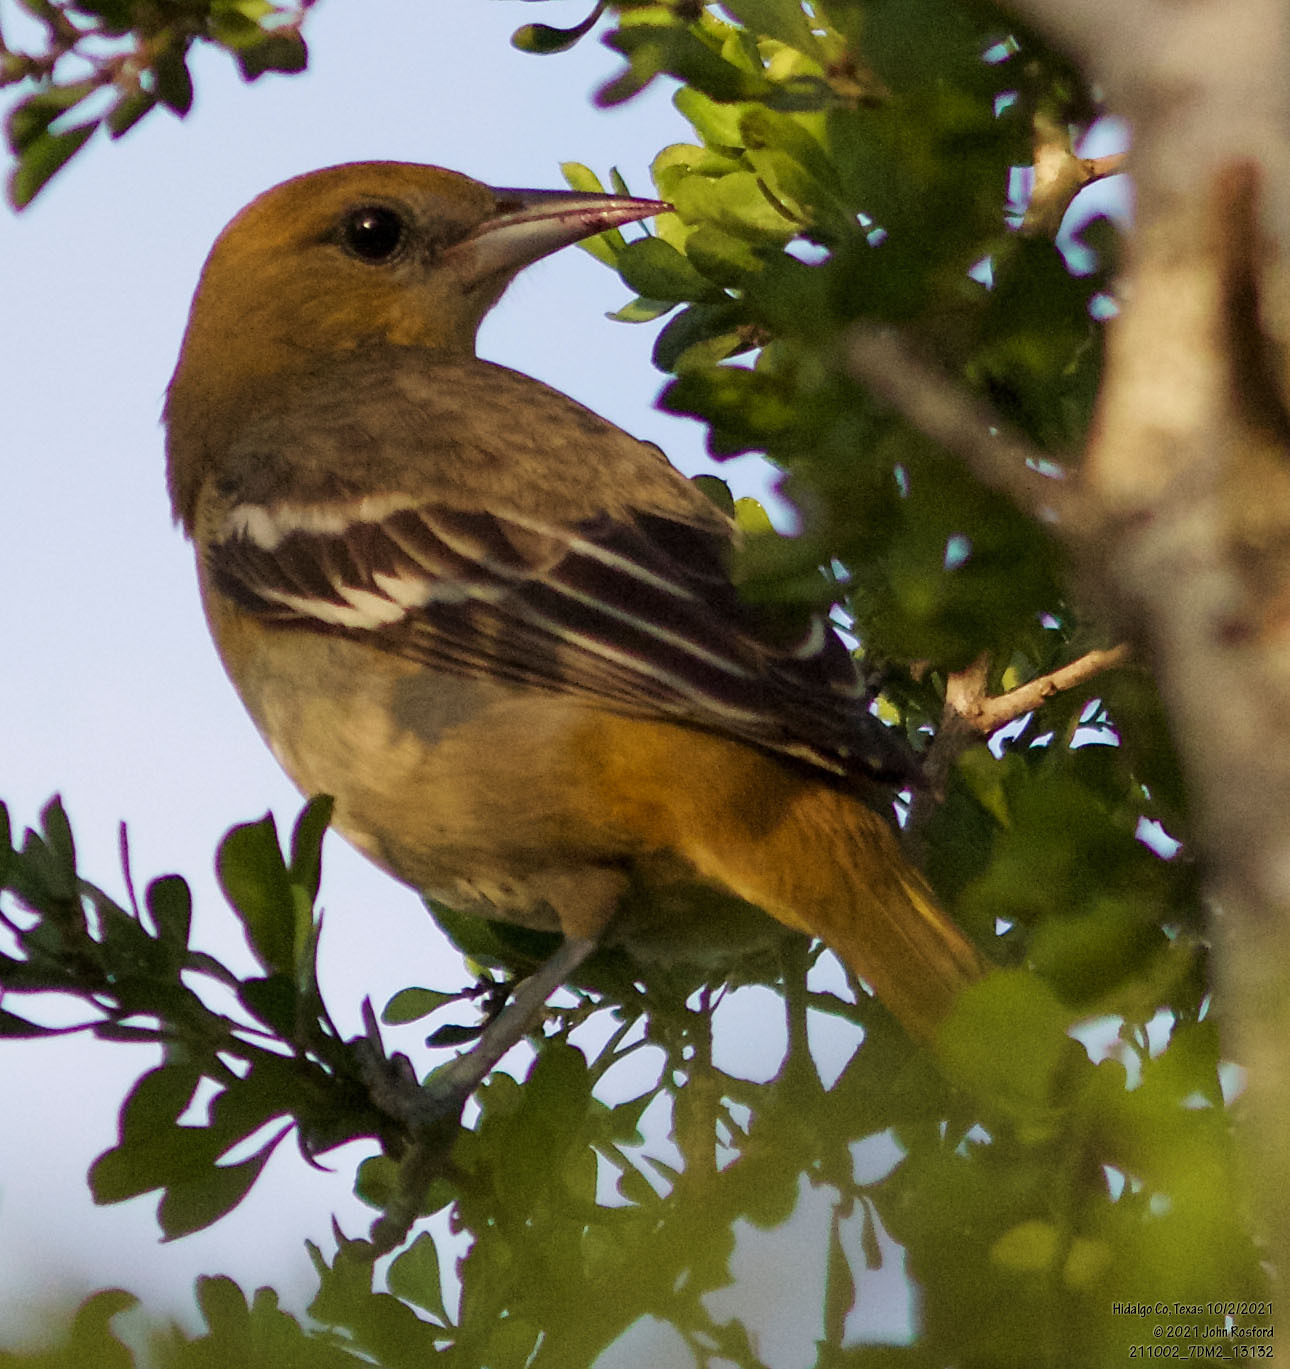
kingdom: Animalia
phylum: Chordata
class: Aves
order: Passeriformes
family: Icteridae
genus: Icterus
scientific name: Icterus bullockii
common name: Bullock's oriole
